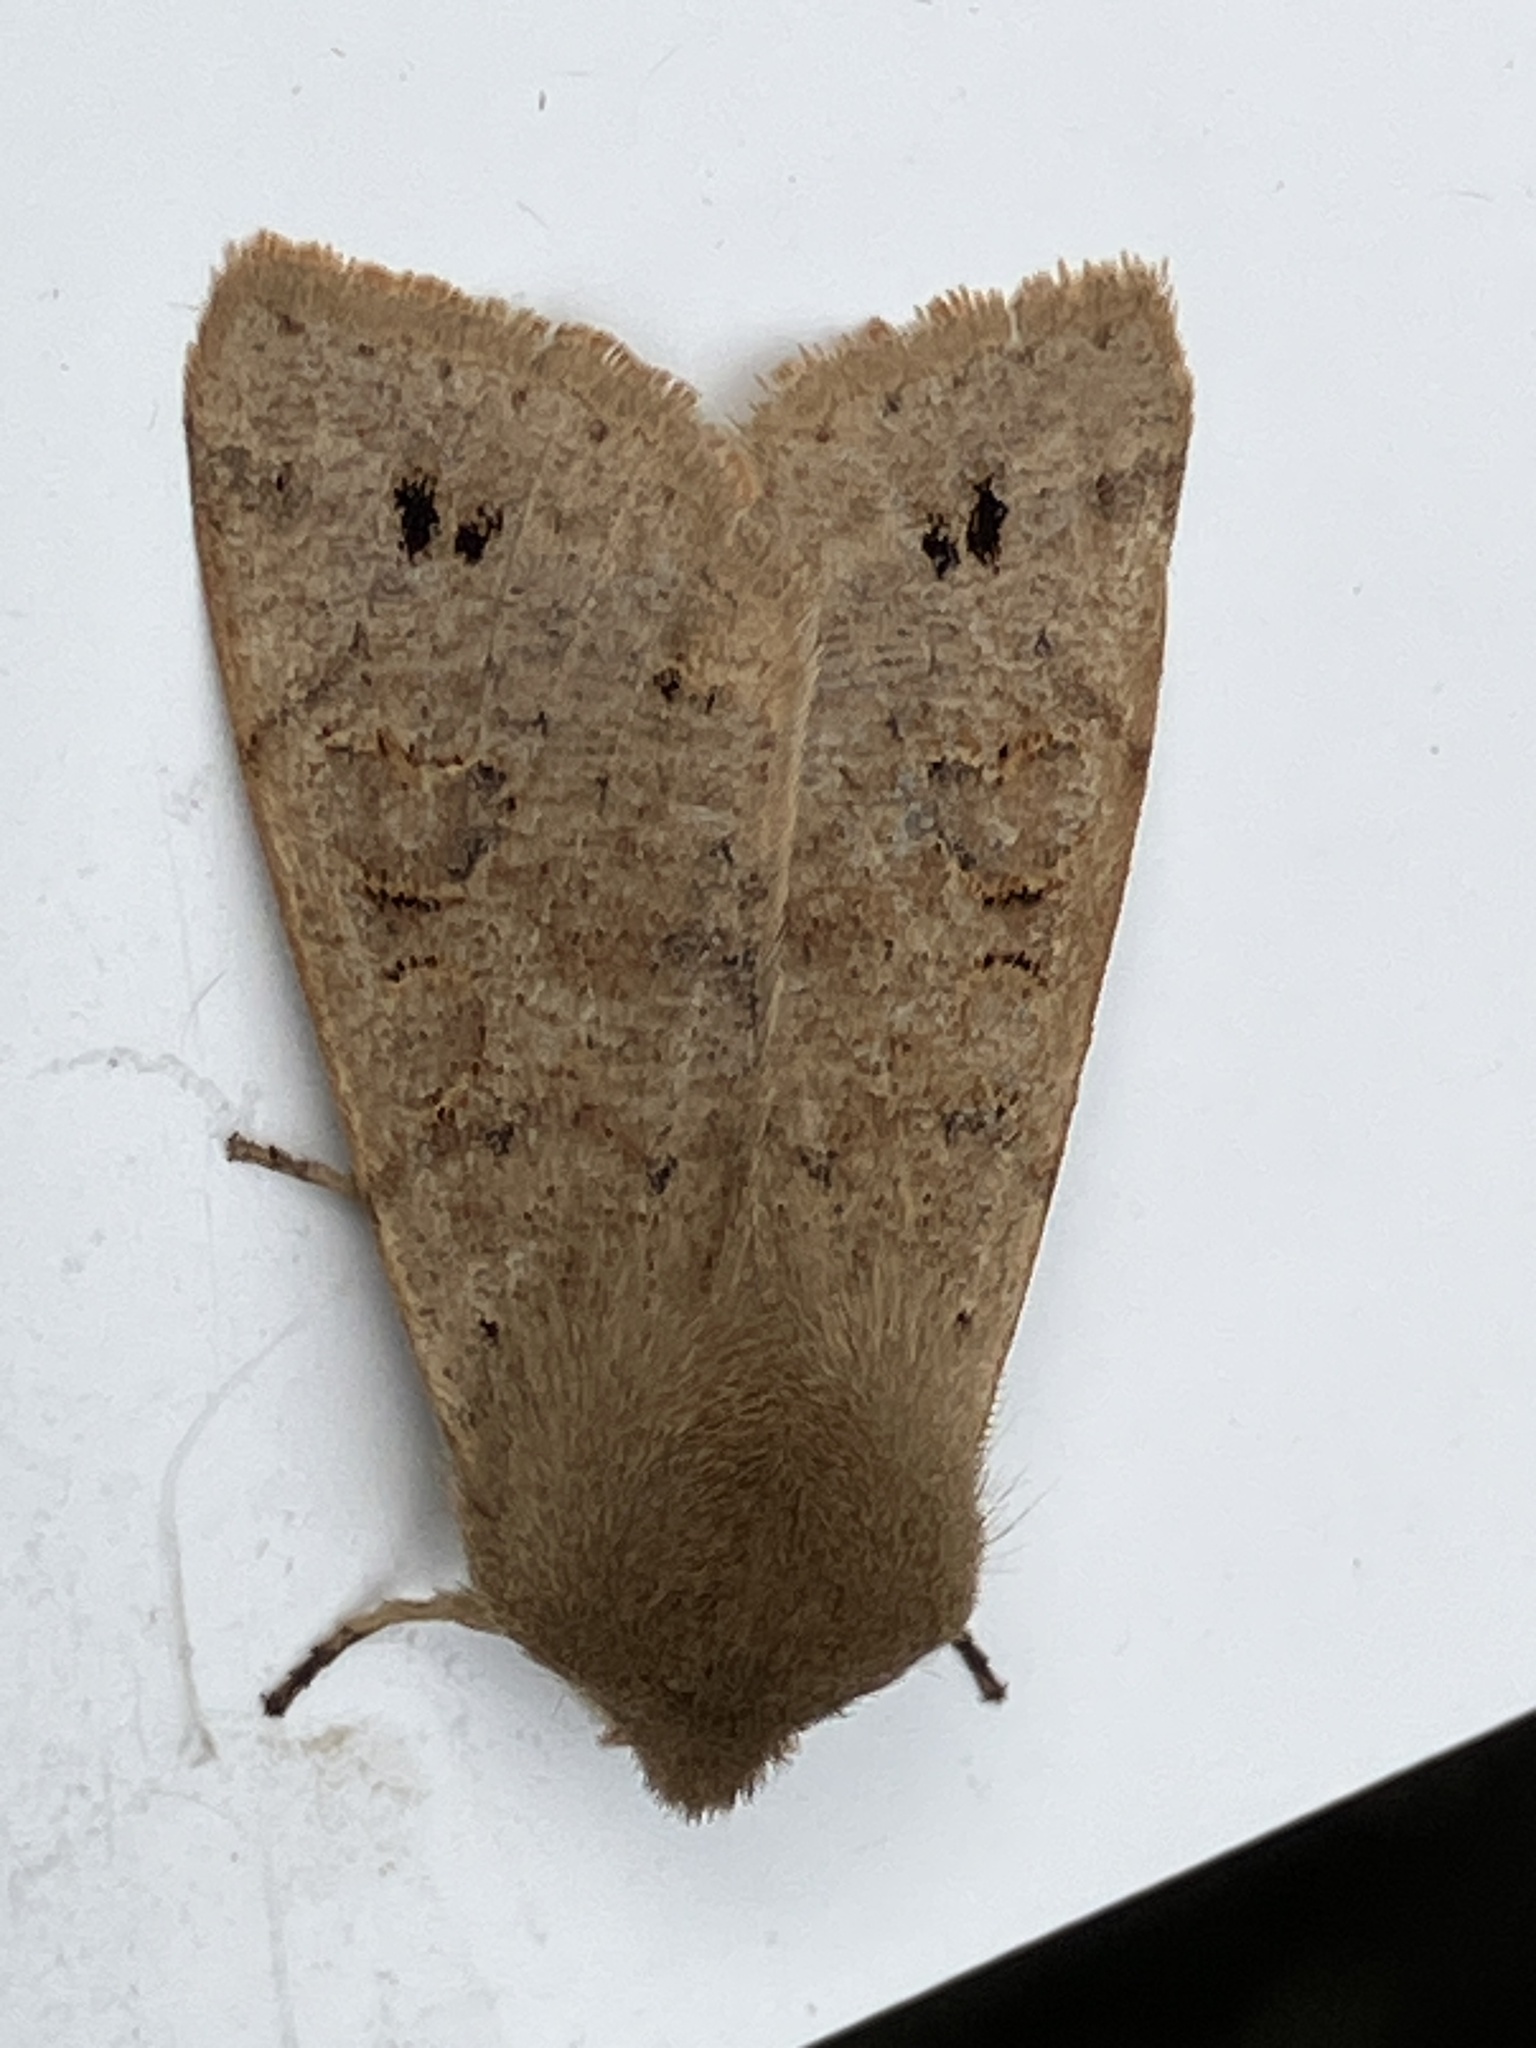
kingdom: Animalia
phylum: Arthropoda
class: Insecta
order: Lepidoptera
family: Noctuidae
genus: Anorthoa
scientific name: Anorthoa munda
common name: Twin-spotted quaker
